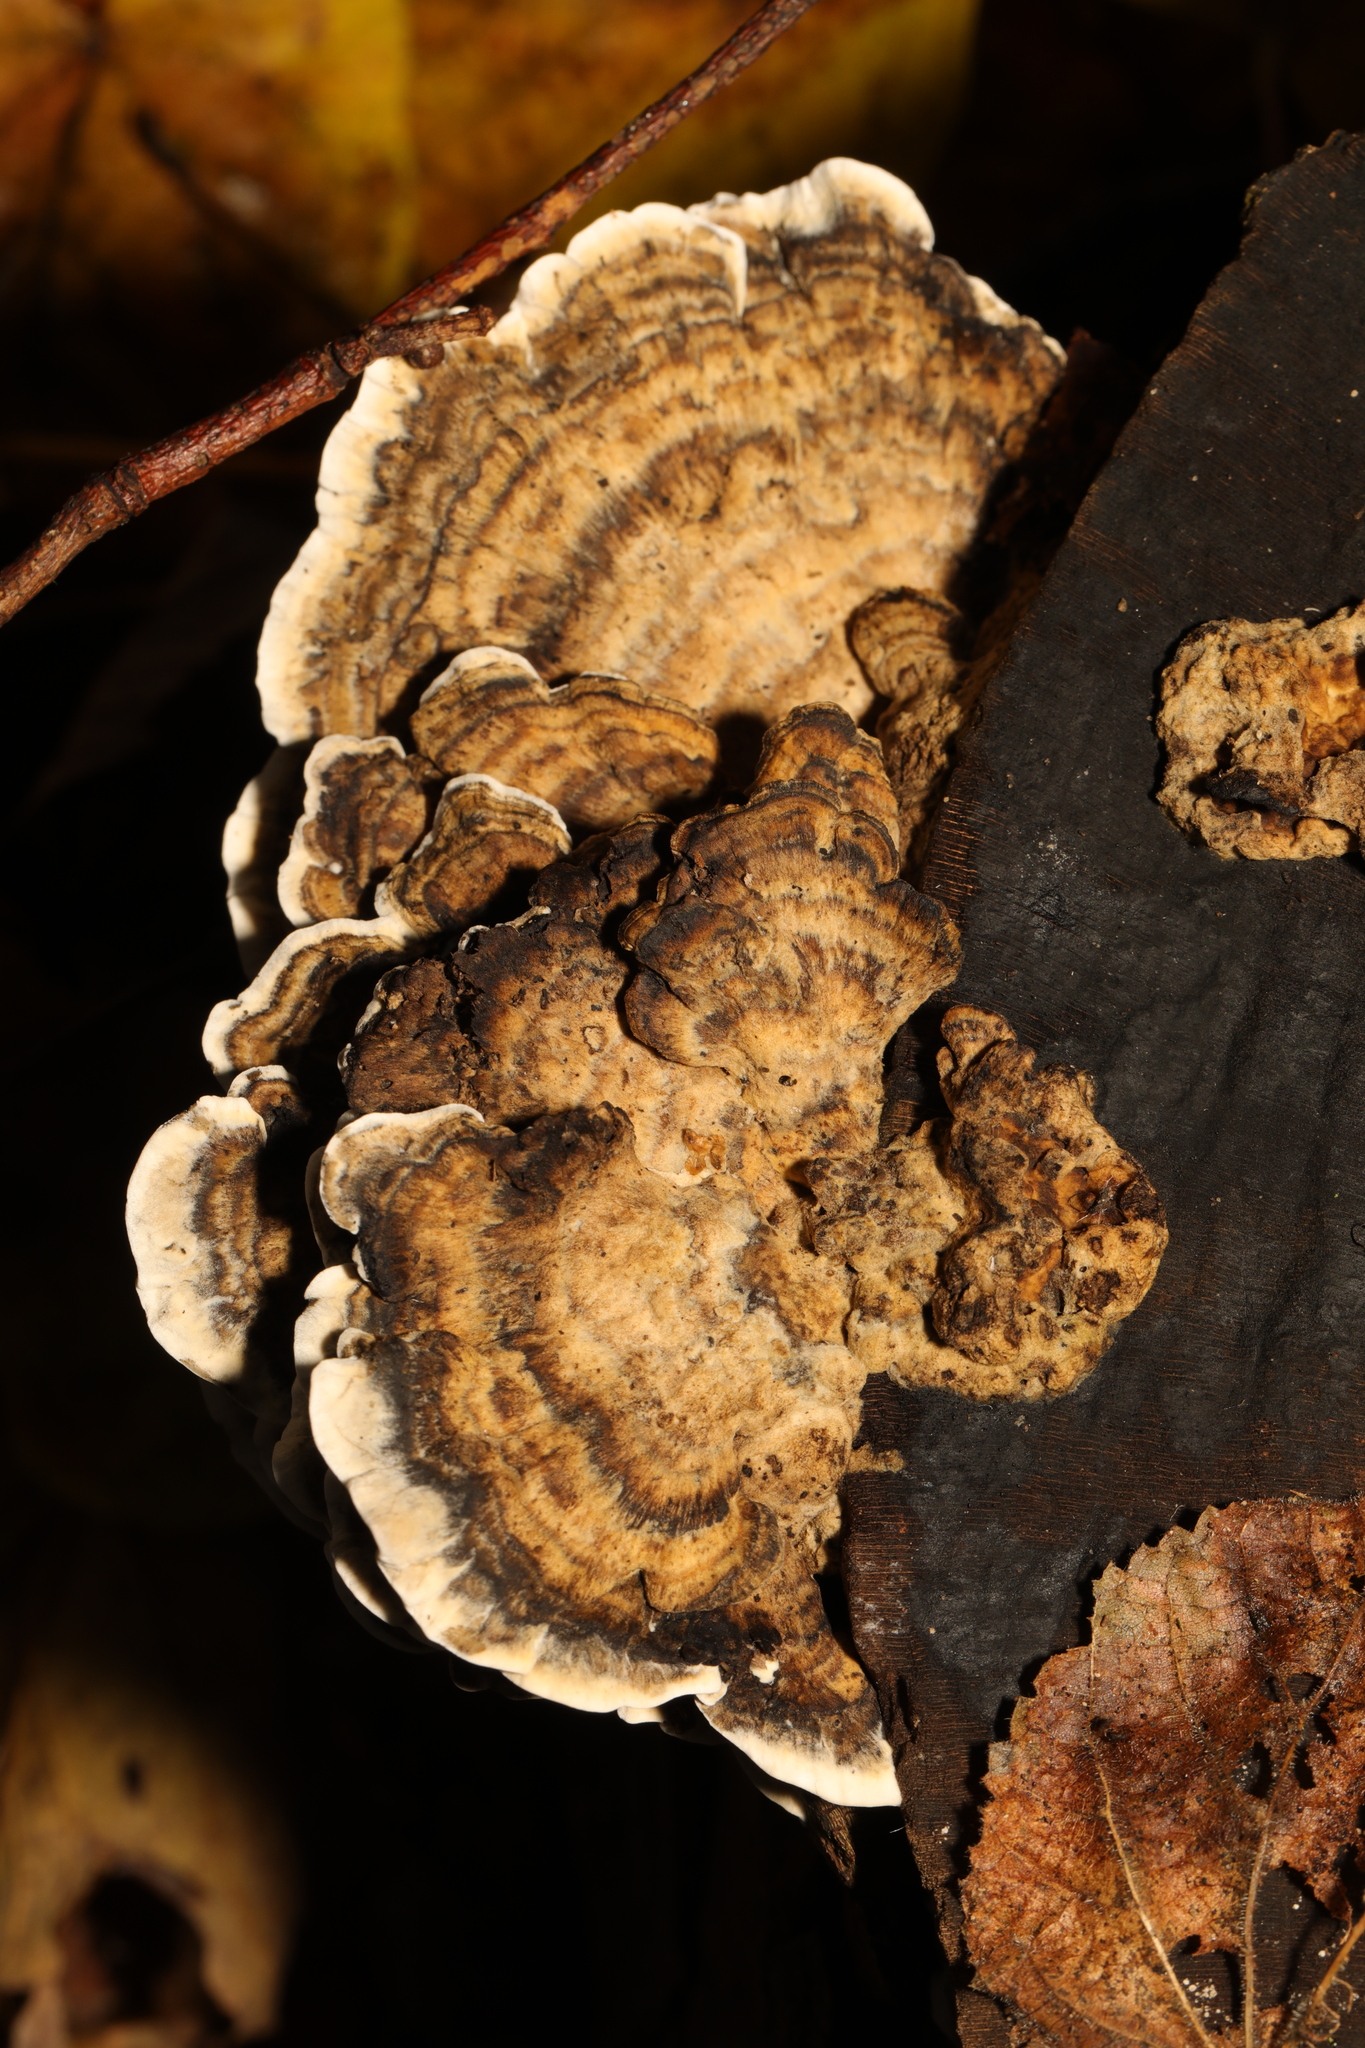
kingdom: Fungi
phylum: Basidiomycota
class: Agaricomycetes
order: Polyporales
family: Phanerochaetaceae
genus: Bjerkandera
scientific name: Bjerkandera adusta
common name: Smoky bracket
